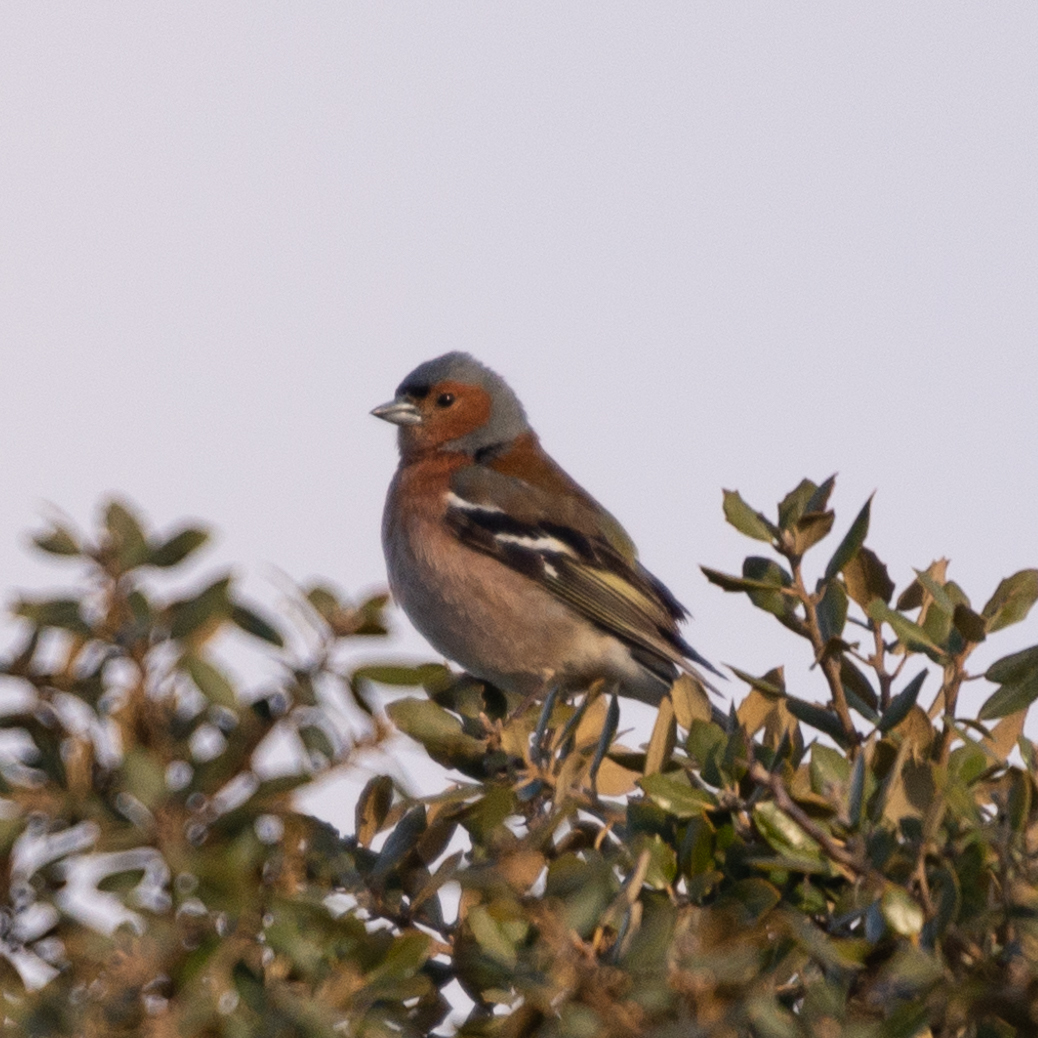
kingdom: Animalia
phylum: Chordata
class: Aves
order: Passeriformes
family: Fringillidae
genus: Fringilla
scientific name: Fringilla coelebs
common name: Common chaffinch
